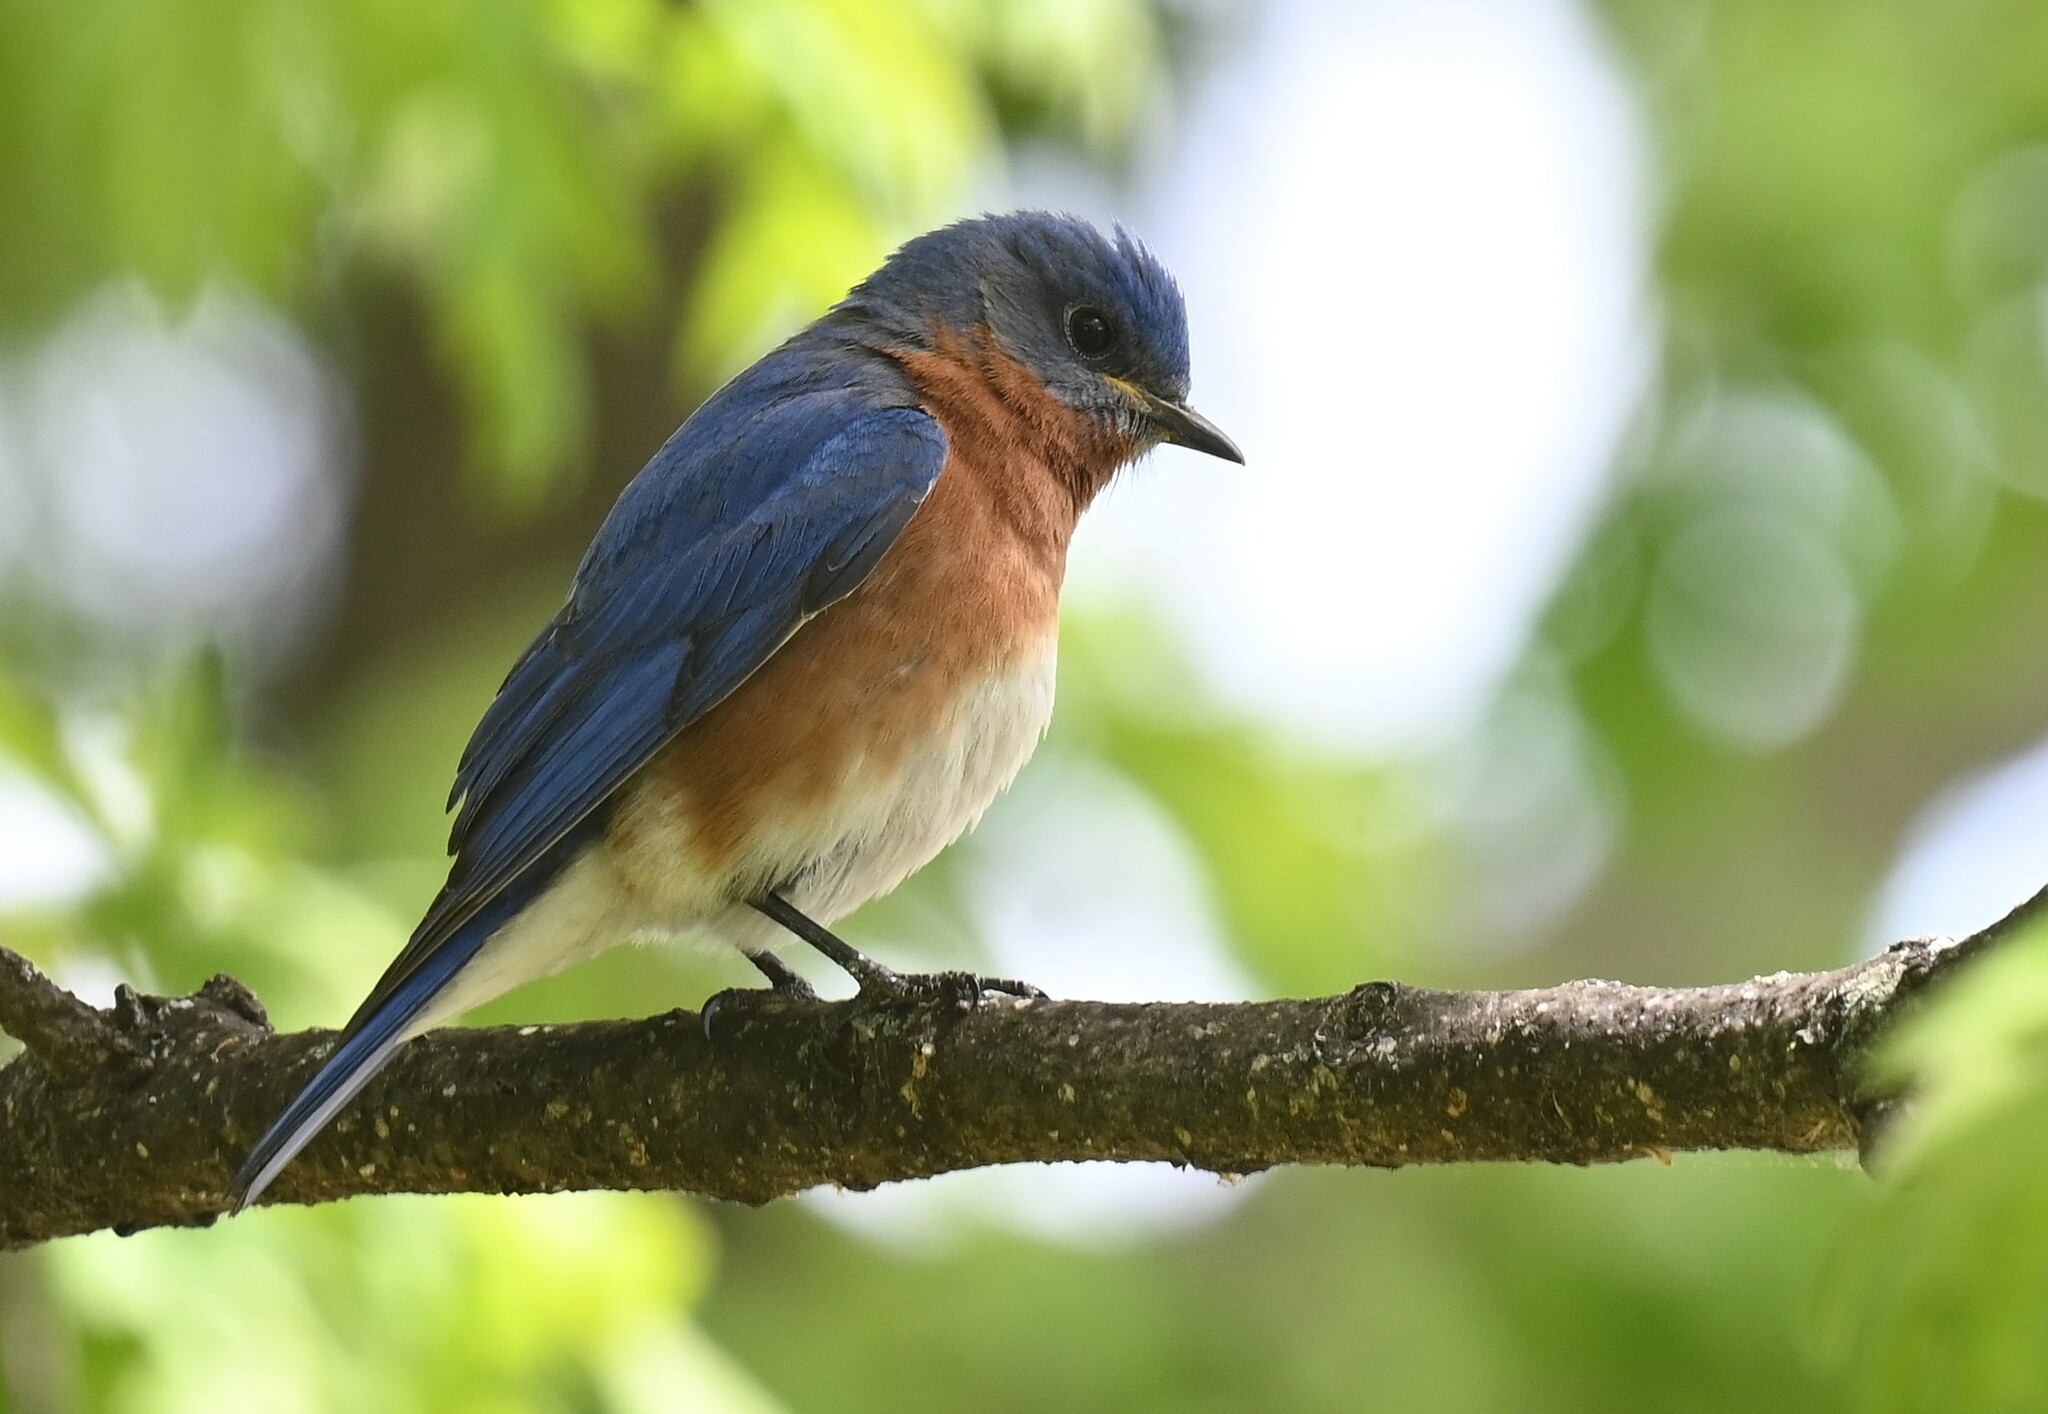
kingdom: Animalia
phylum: Chordata
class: Aves
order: Passeriformes
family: Turdidae
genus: Sialia
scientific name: Sialia sialis
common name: Eastern bluebird
